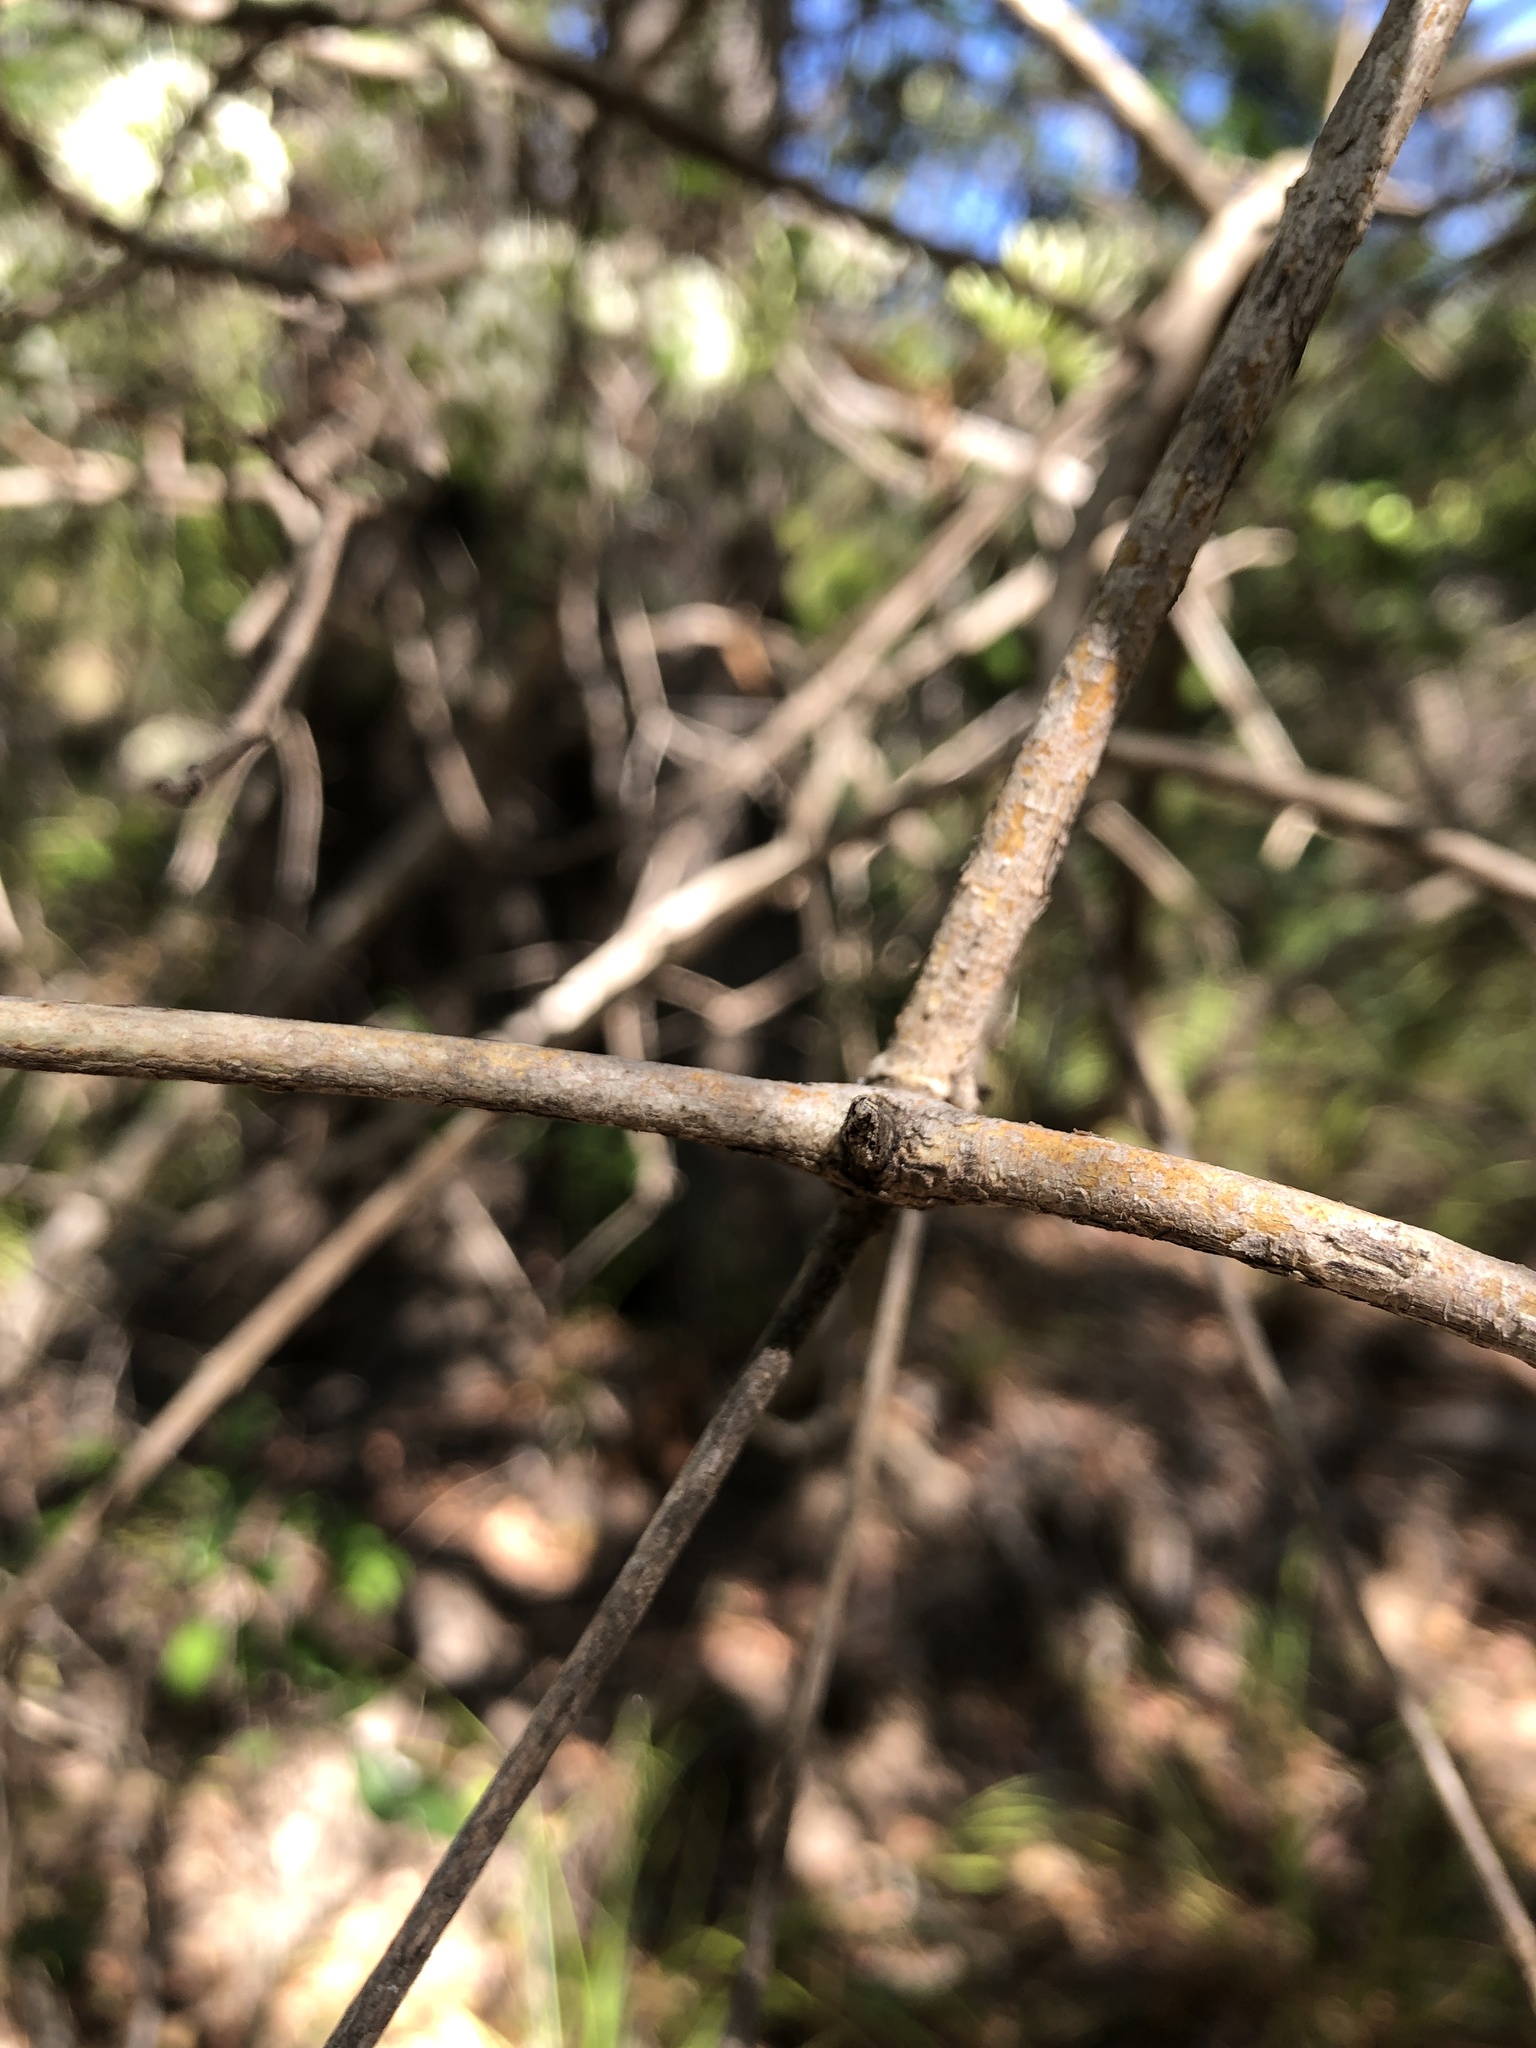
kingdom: Plantae
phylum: Tracheophyta
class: Magnoliopsida
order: Gentianales
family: Rubiaceae
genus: Pavetta
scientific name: Pavetta australiensis
